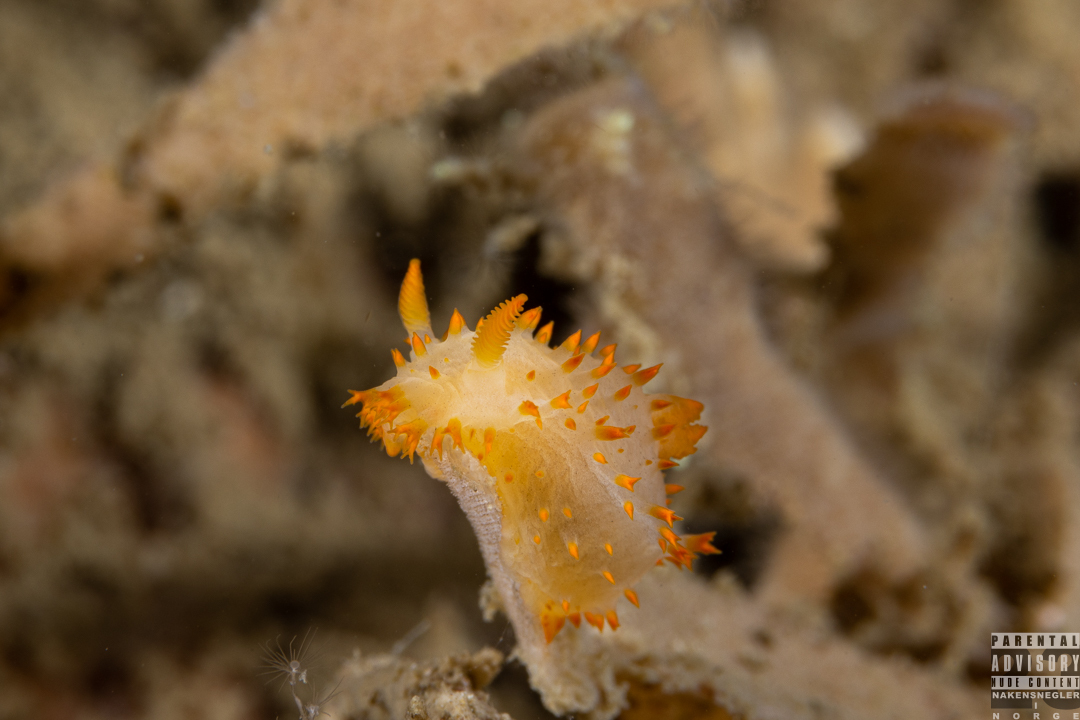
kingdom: Animalia
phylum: Mollusca
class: Gastropoda
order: Nudibranchia
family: Polyceridae
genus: Crimora
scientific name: Crimora papillata
